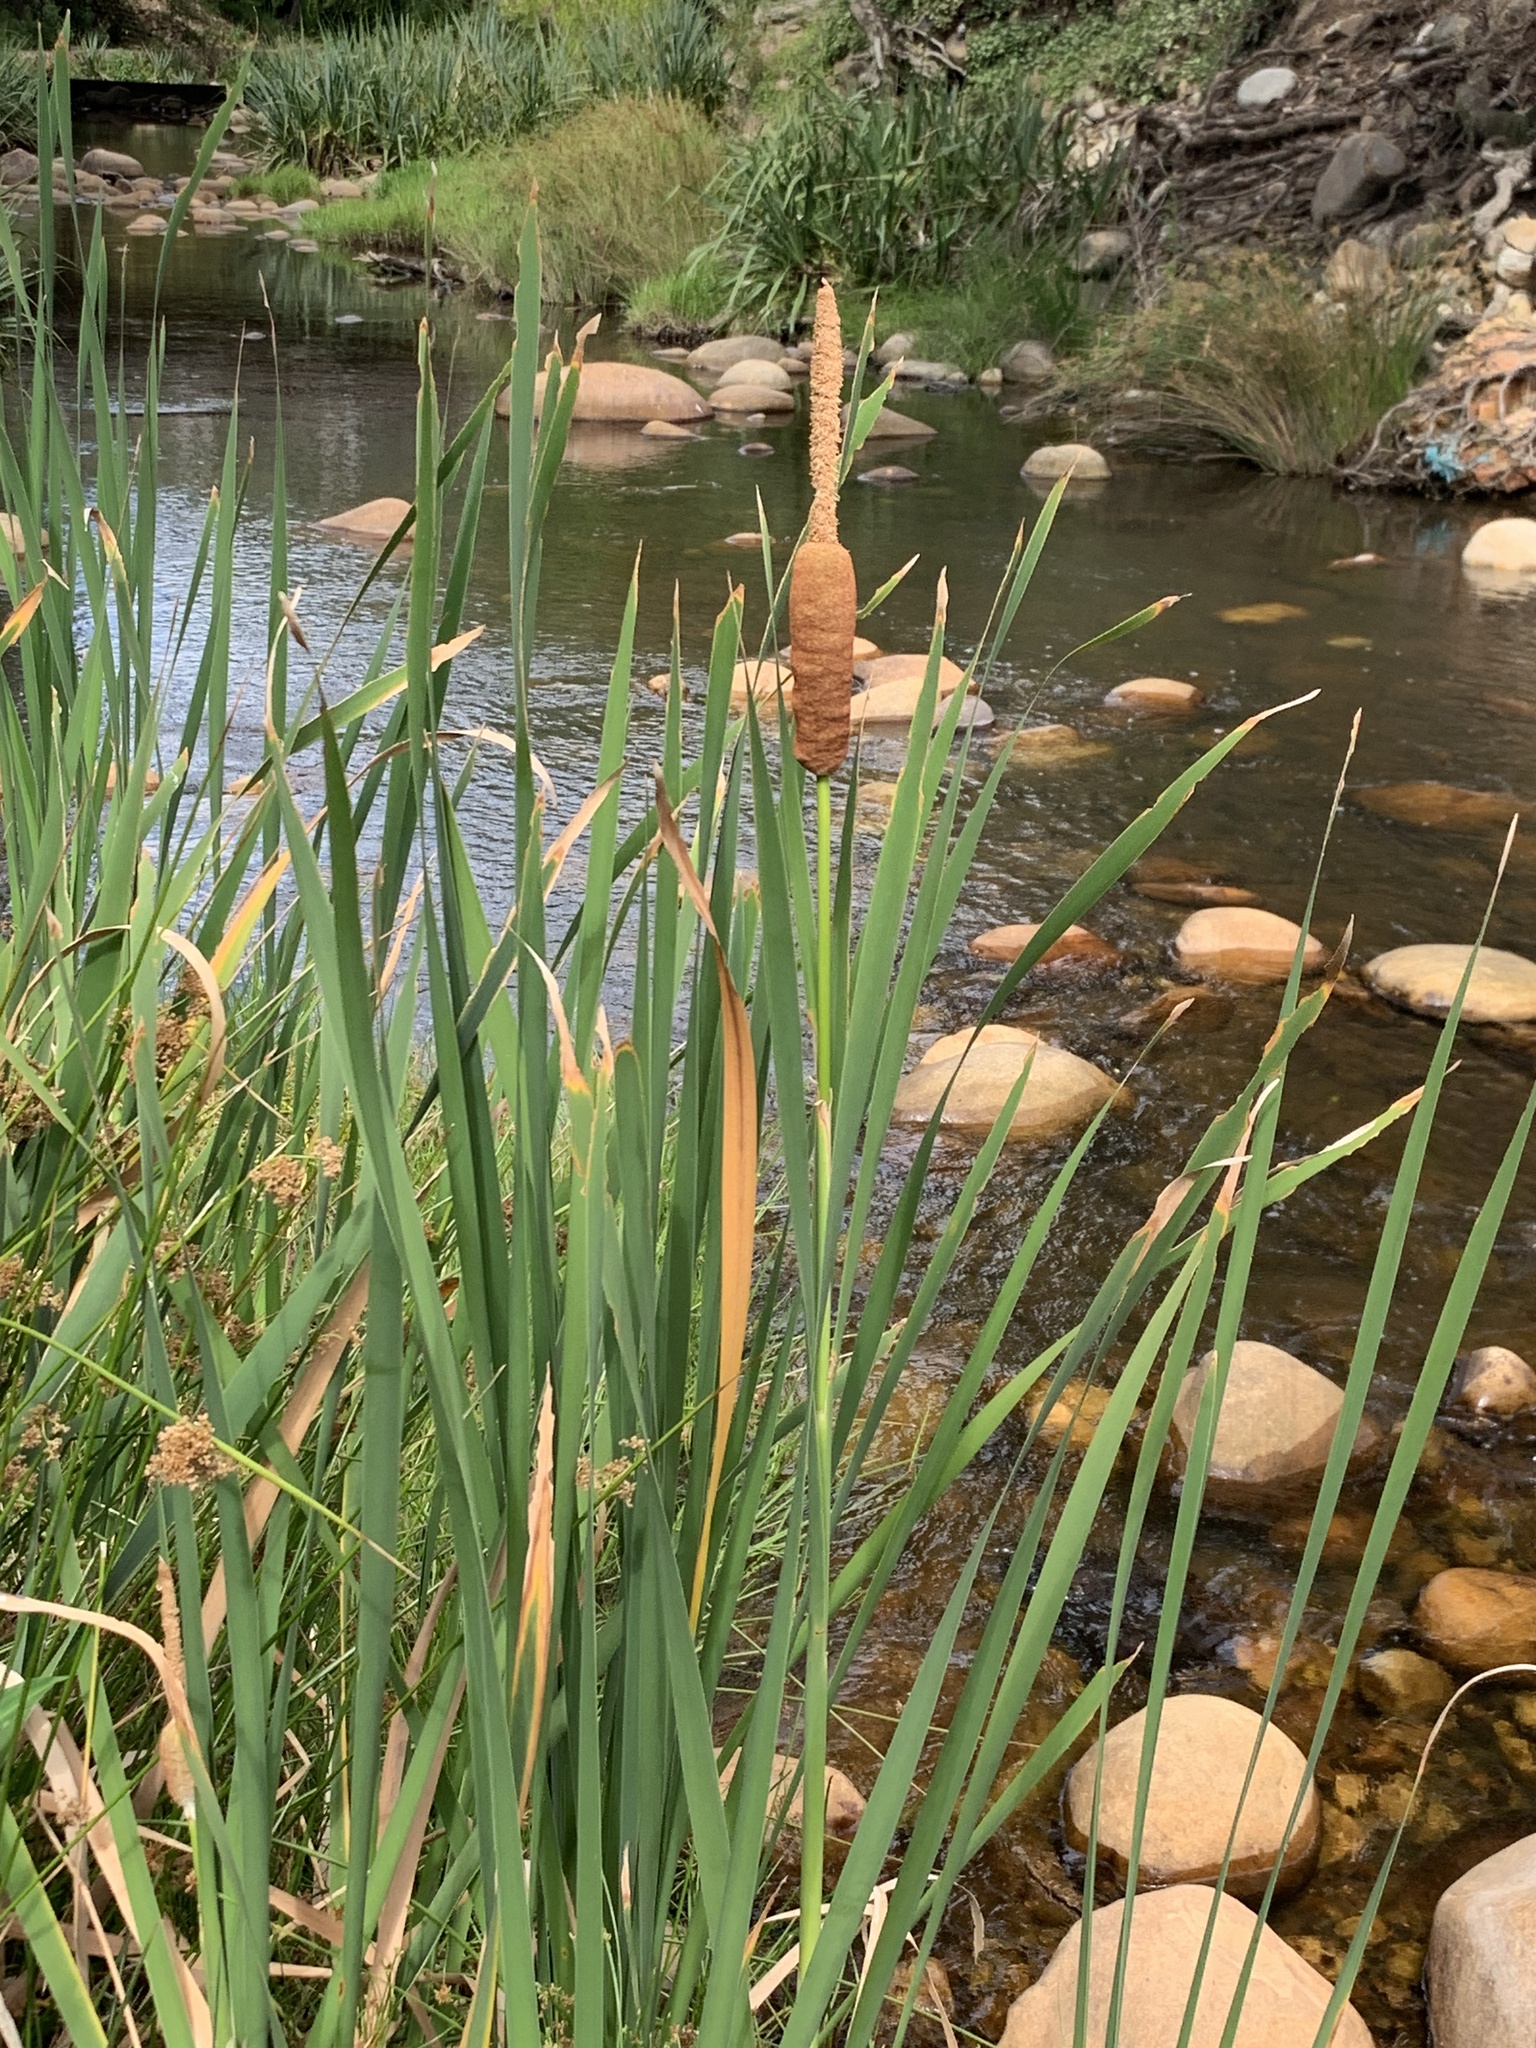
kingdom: Plantae
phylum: Tracheophyta
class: Liliopsida
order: Poales
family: Typhaceae
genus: Typha
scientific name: Typha capensis
